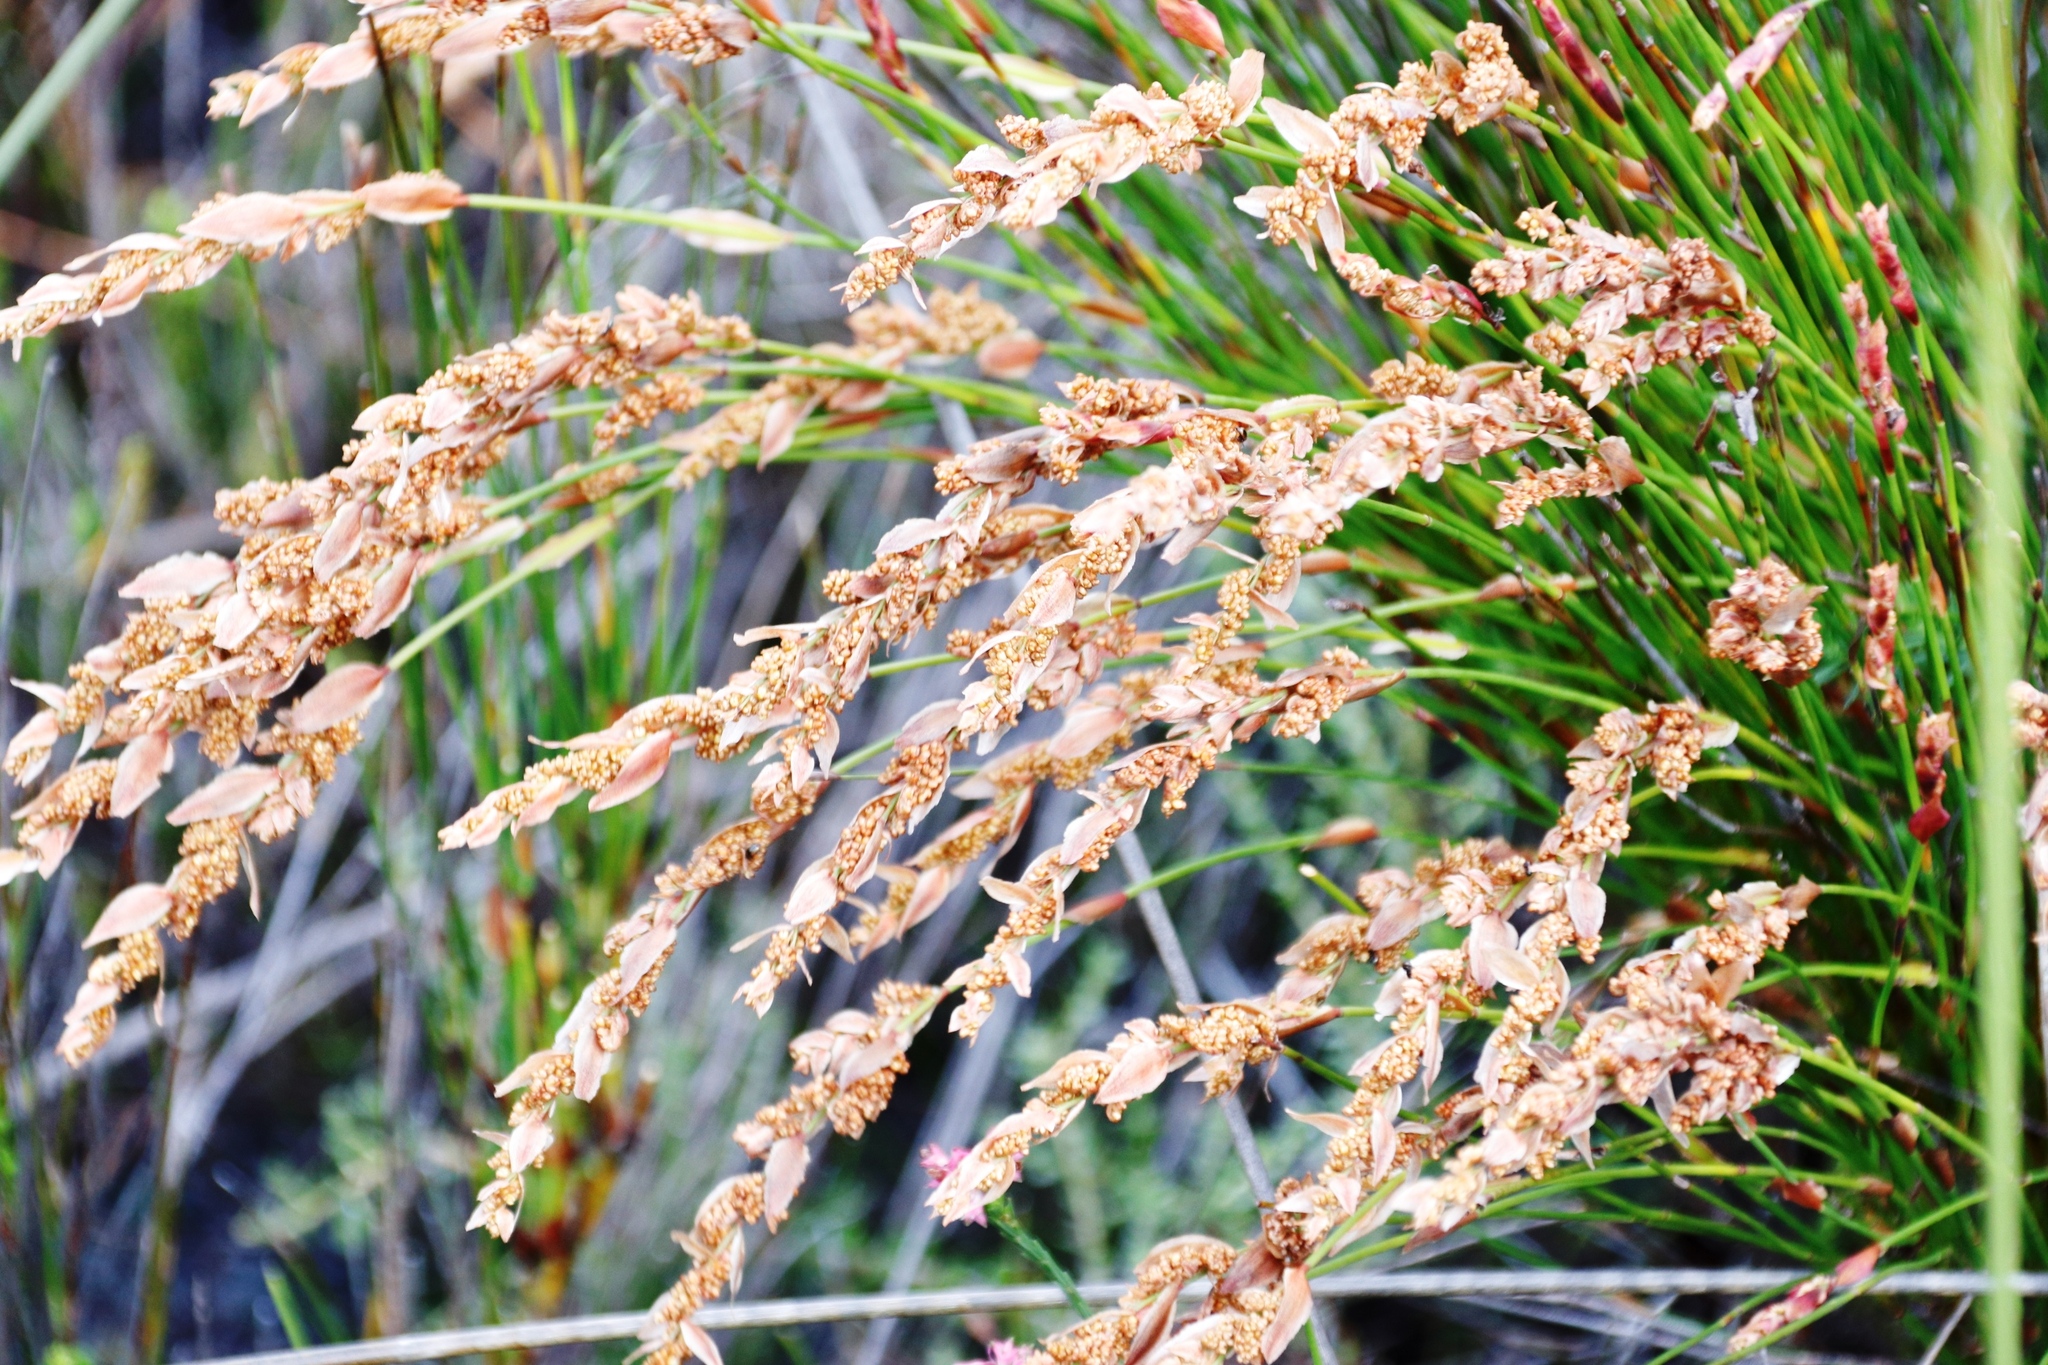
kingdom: Plantae
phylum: Tracheophyta
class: Liliopsida
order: Poales
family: Restionaceae
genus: Elegia
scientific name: Elegia stipularis
